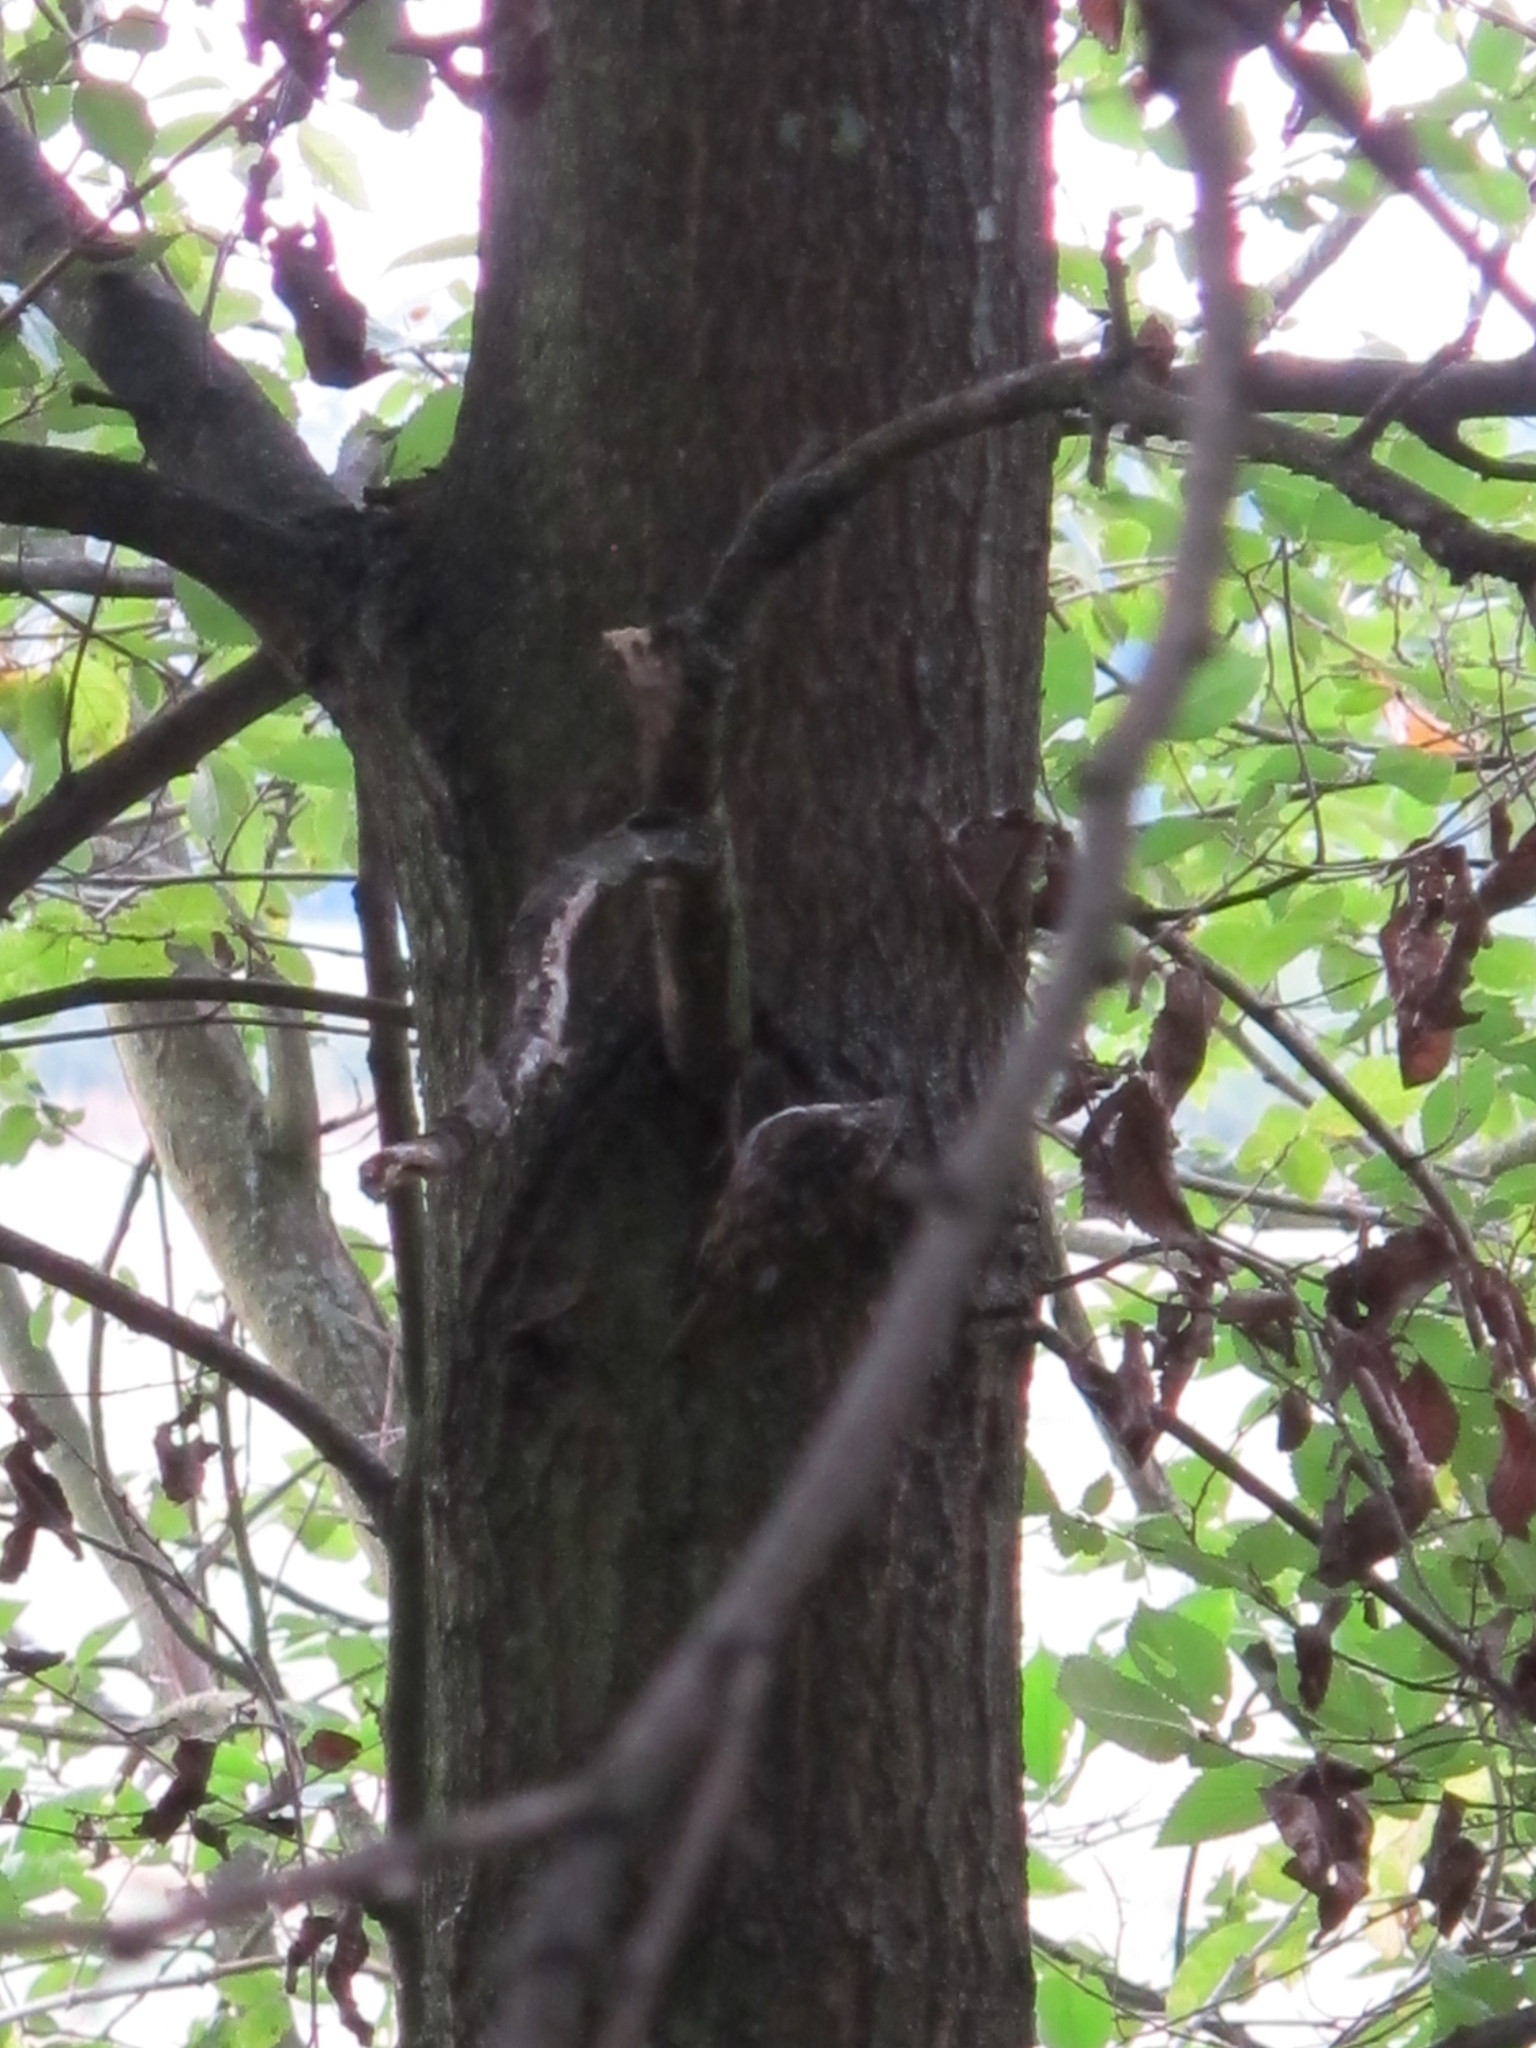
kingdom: Animalia
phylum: Chordata
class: Aves
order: Passeriformes
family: Certhiidae
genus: Certhia
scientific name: Certhia
